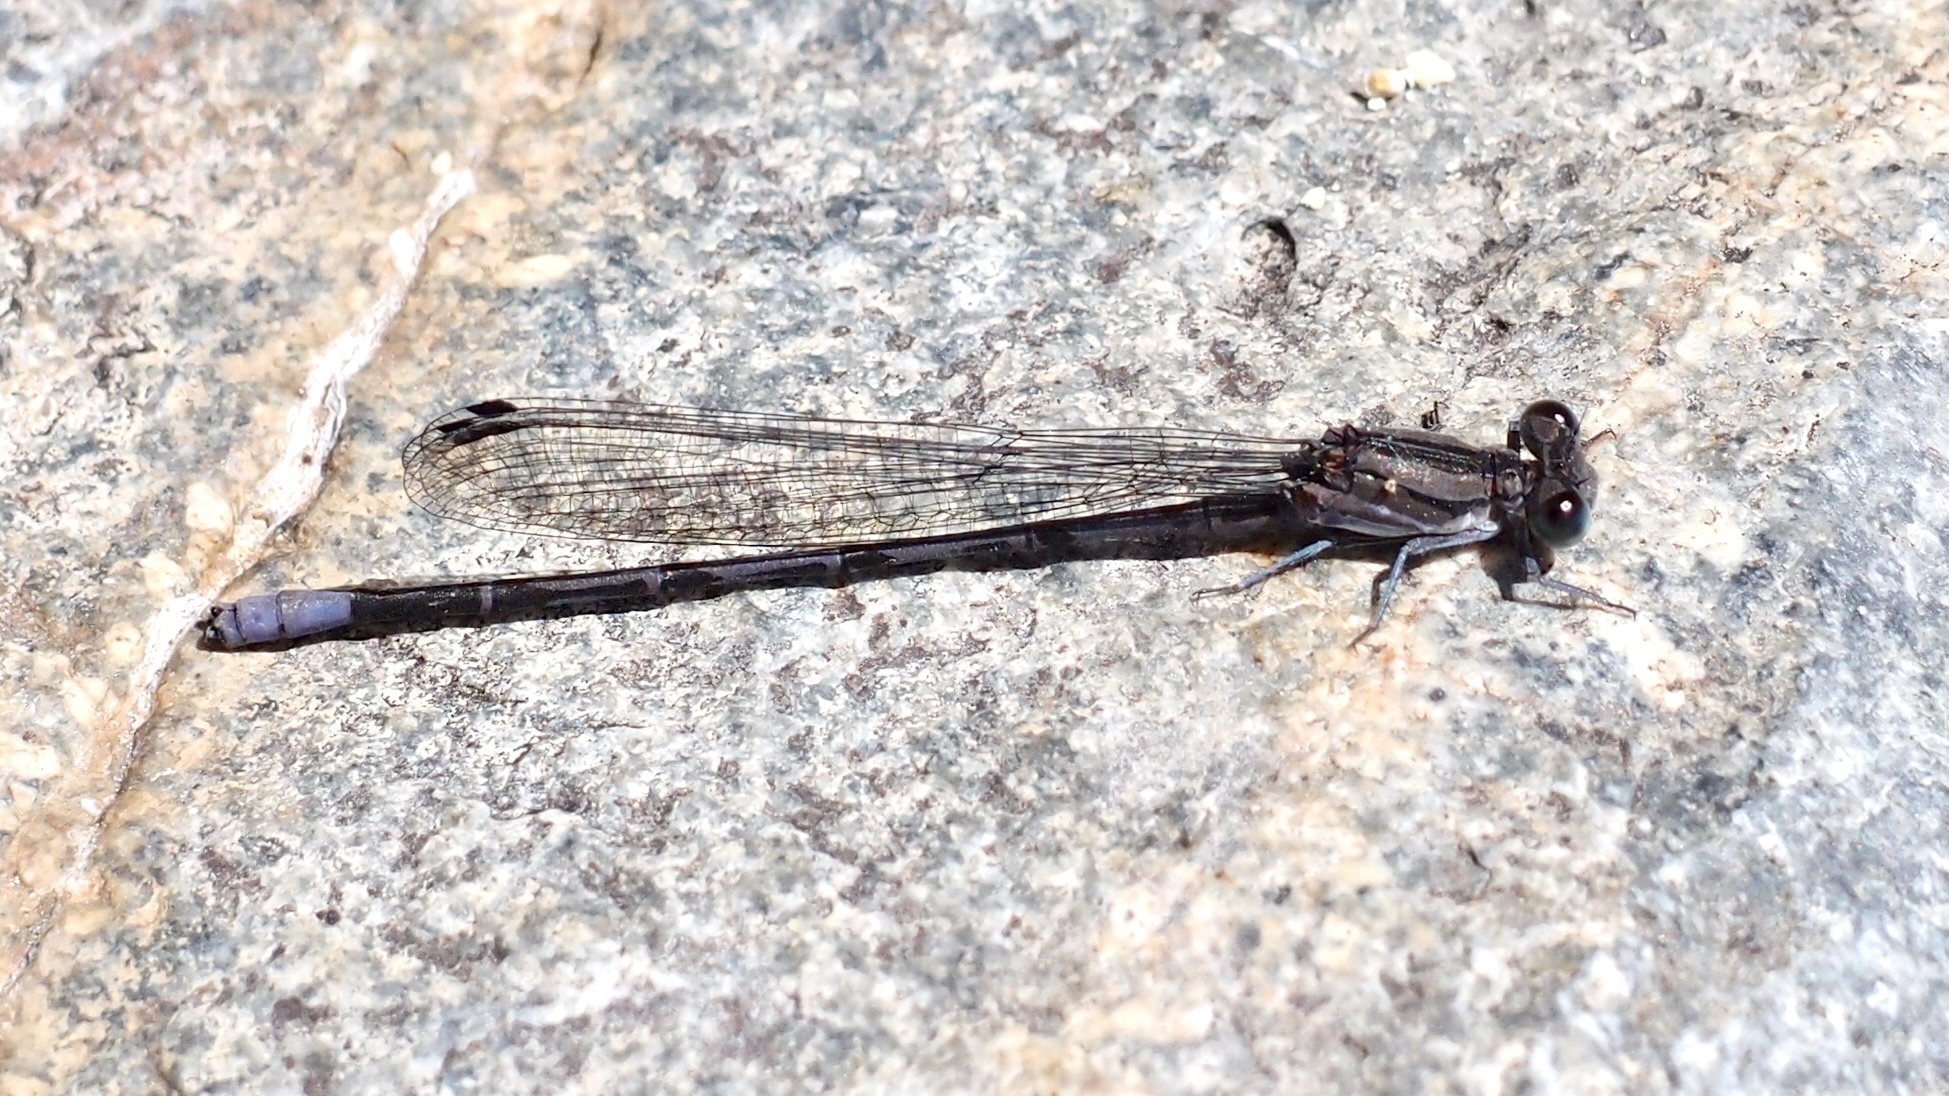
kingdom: Animalia
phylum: Arthropoda
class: Insecta
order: Odonata
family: Coenagrionidae
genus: Argia
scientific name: Argia funebris
